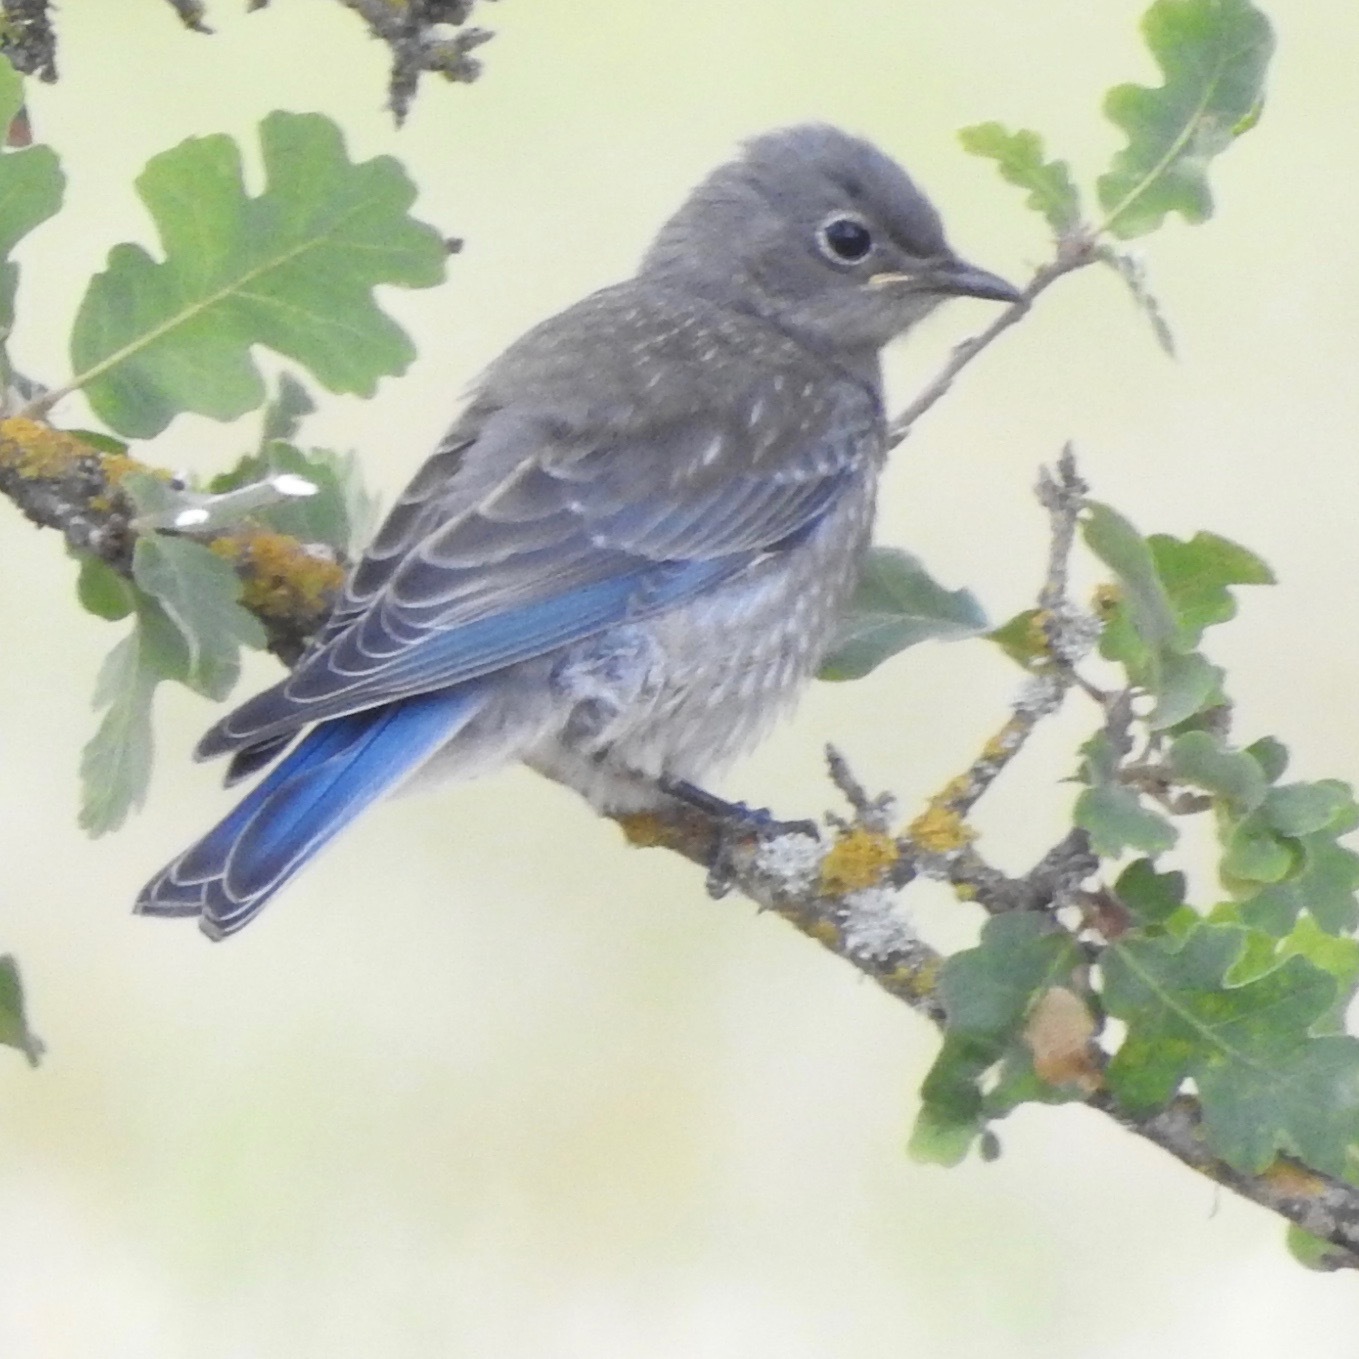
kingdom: Animalia
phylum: Chordata
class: Aves
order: Passeriformes
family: Turdidae
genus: Sialia
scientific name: Sialia mexicana
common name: Western bluebird
